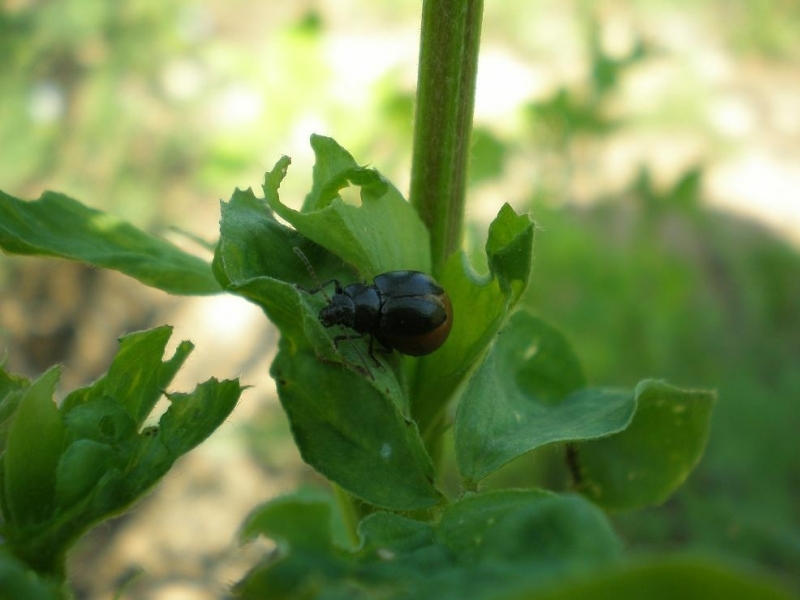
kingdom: Animalia
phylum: Arthropoda
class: Insecta
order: Coleoptera
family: Chrysomelidae
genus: Colaspidema
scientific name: Colaspidema barbarum
